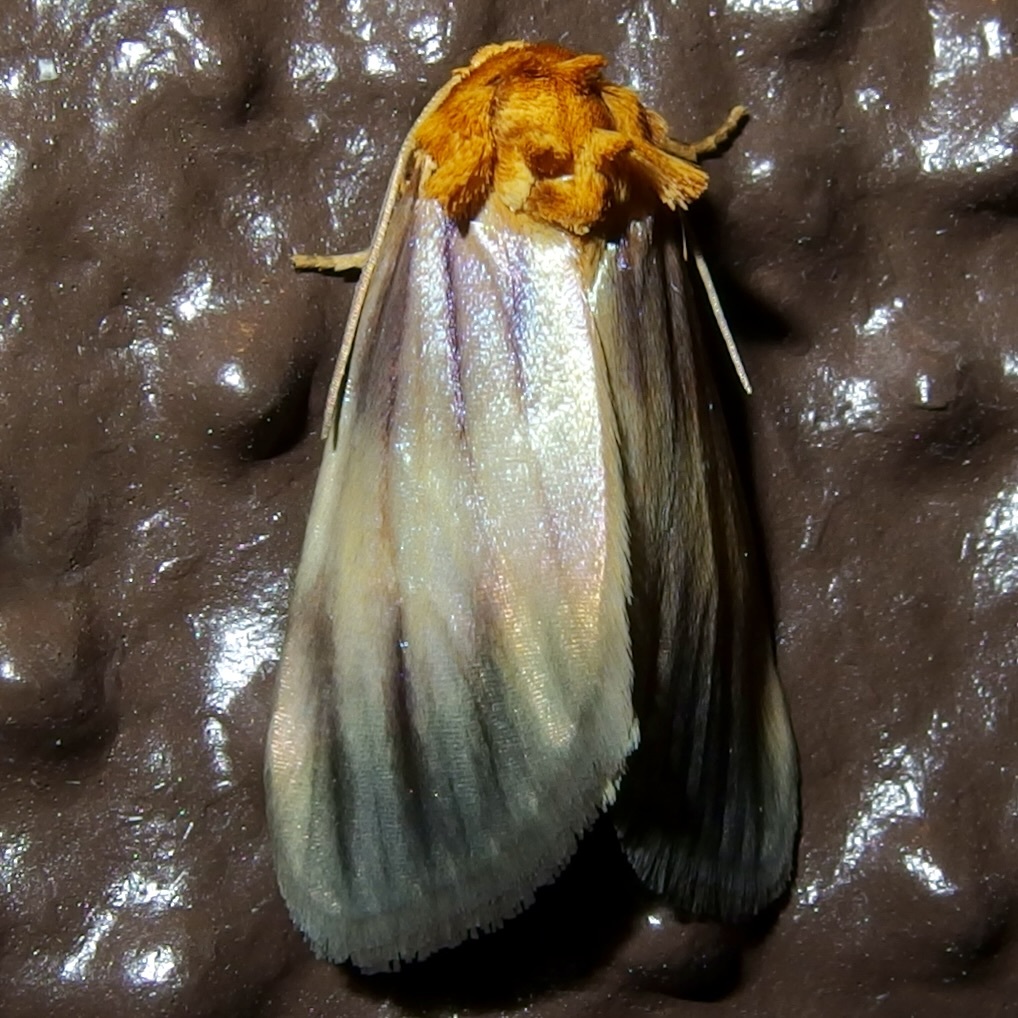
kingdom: Animalia
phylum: Arthropoda
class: Insecta
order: Lepidoptera
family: Noctuidae
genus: Antaplaga
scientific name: Antaplaga plesioglauca
